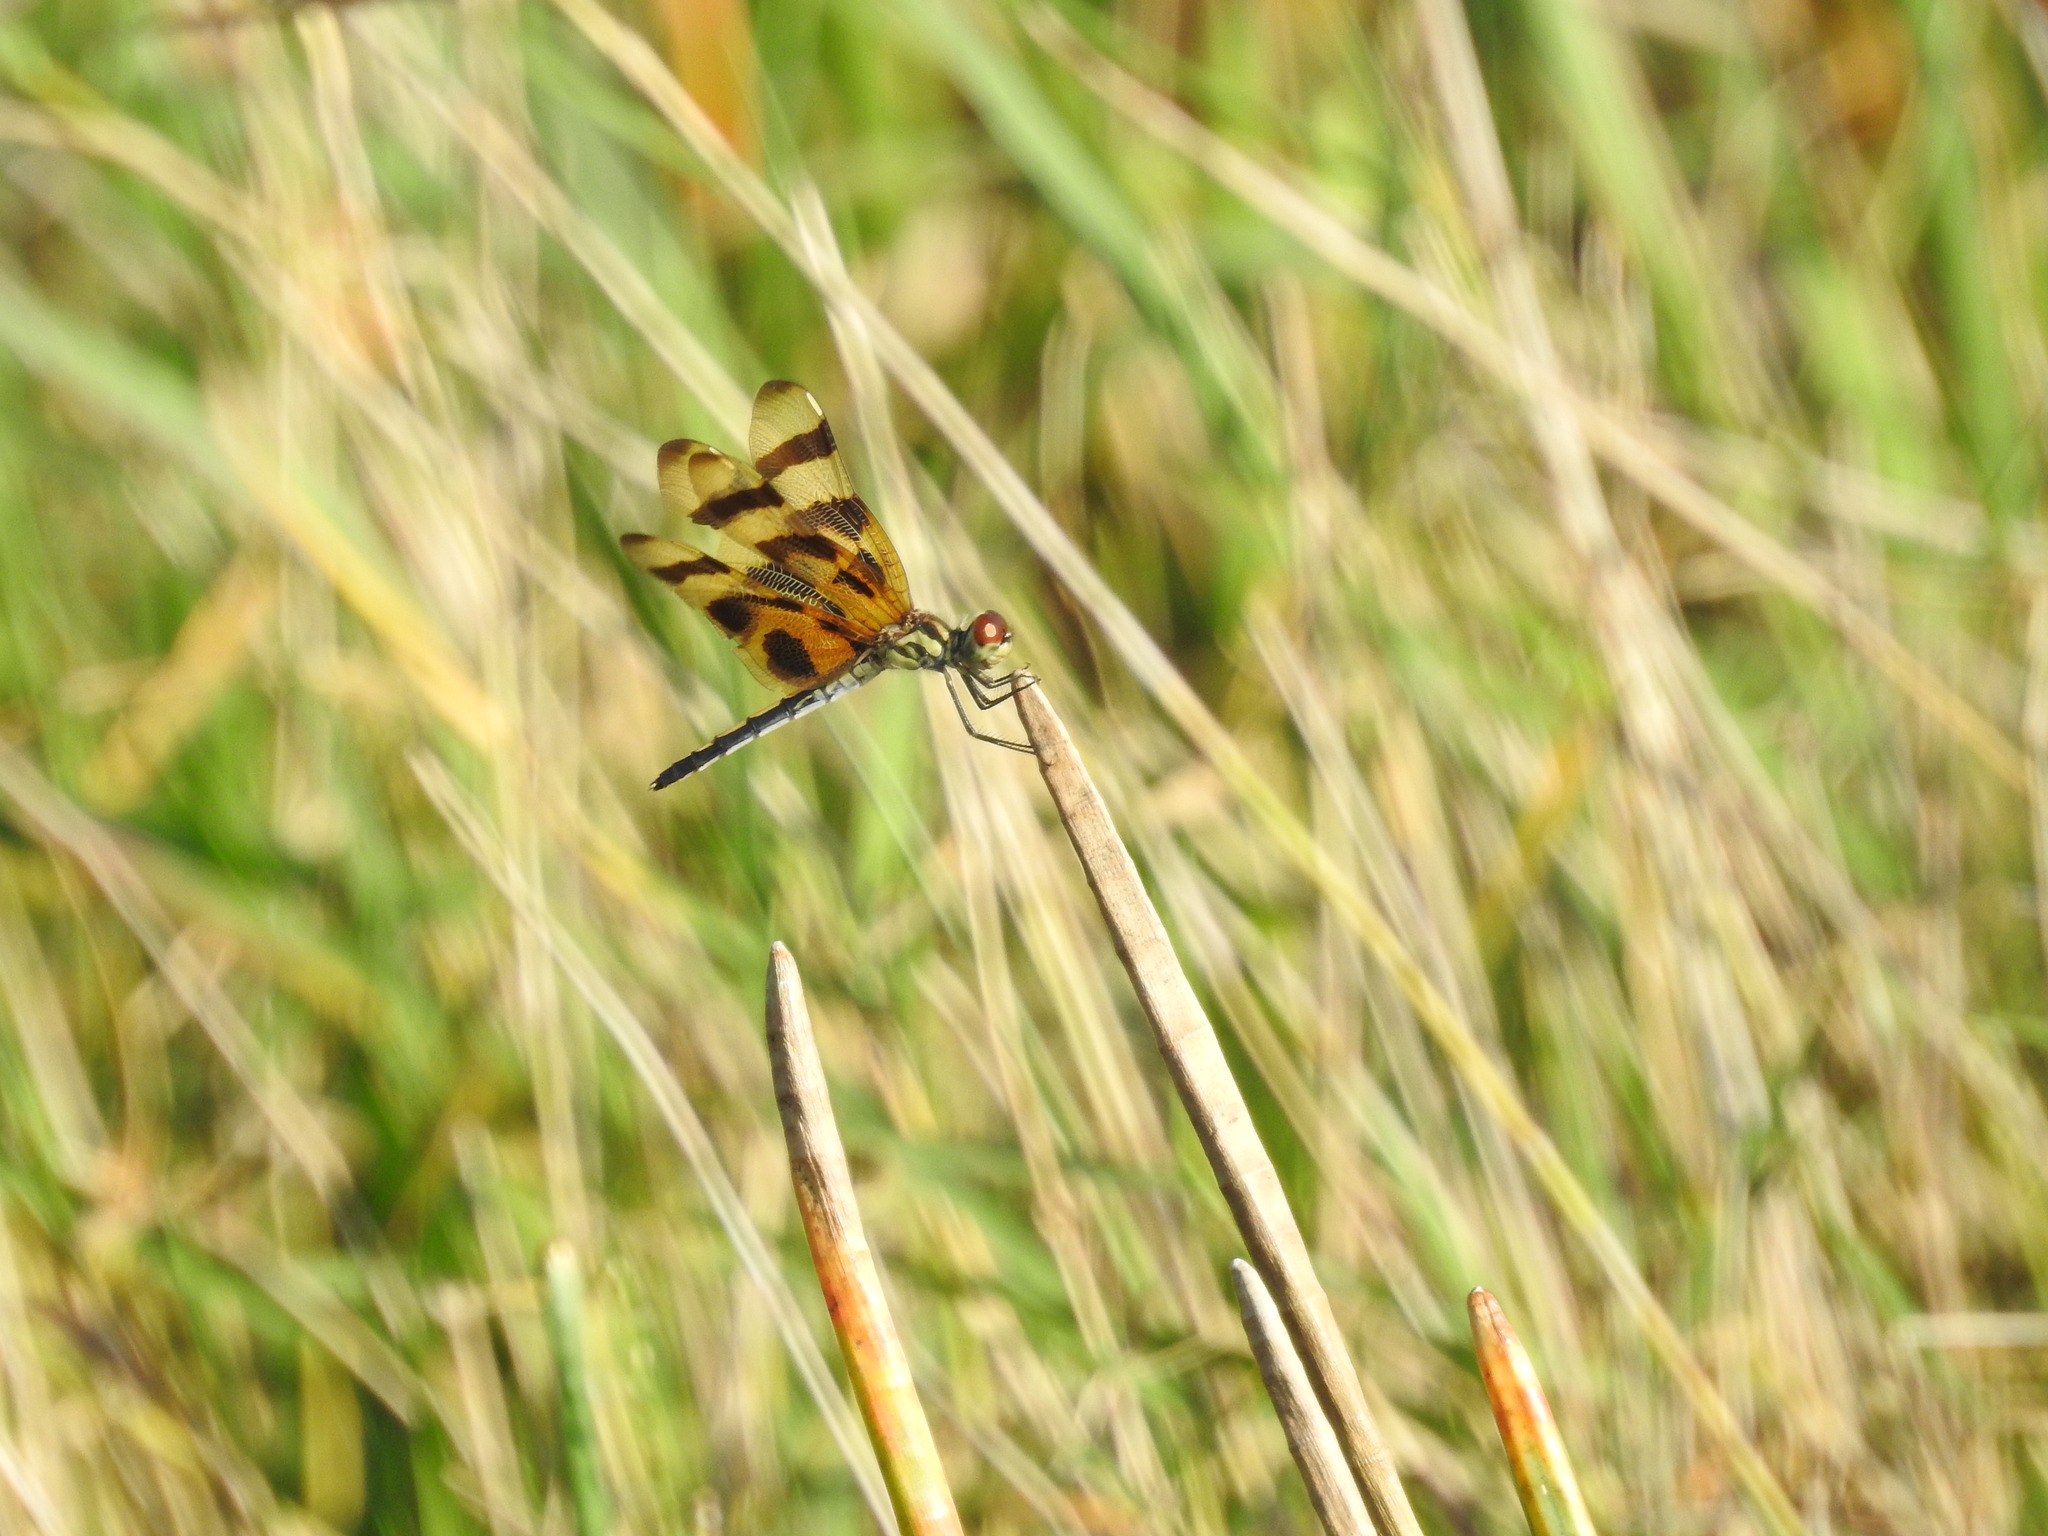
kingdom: Animalia
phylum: Arthropoda
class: Insecta
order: Odonata
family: Libellulidae
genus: Celithemis
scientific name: Celithemis eponina
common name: Halloween pennant
